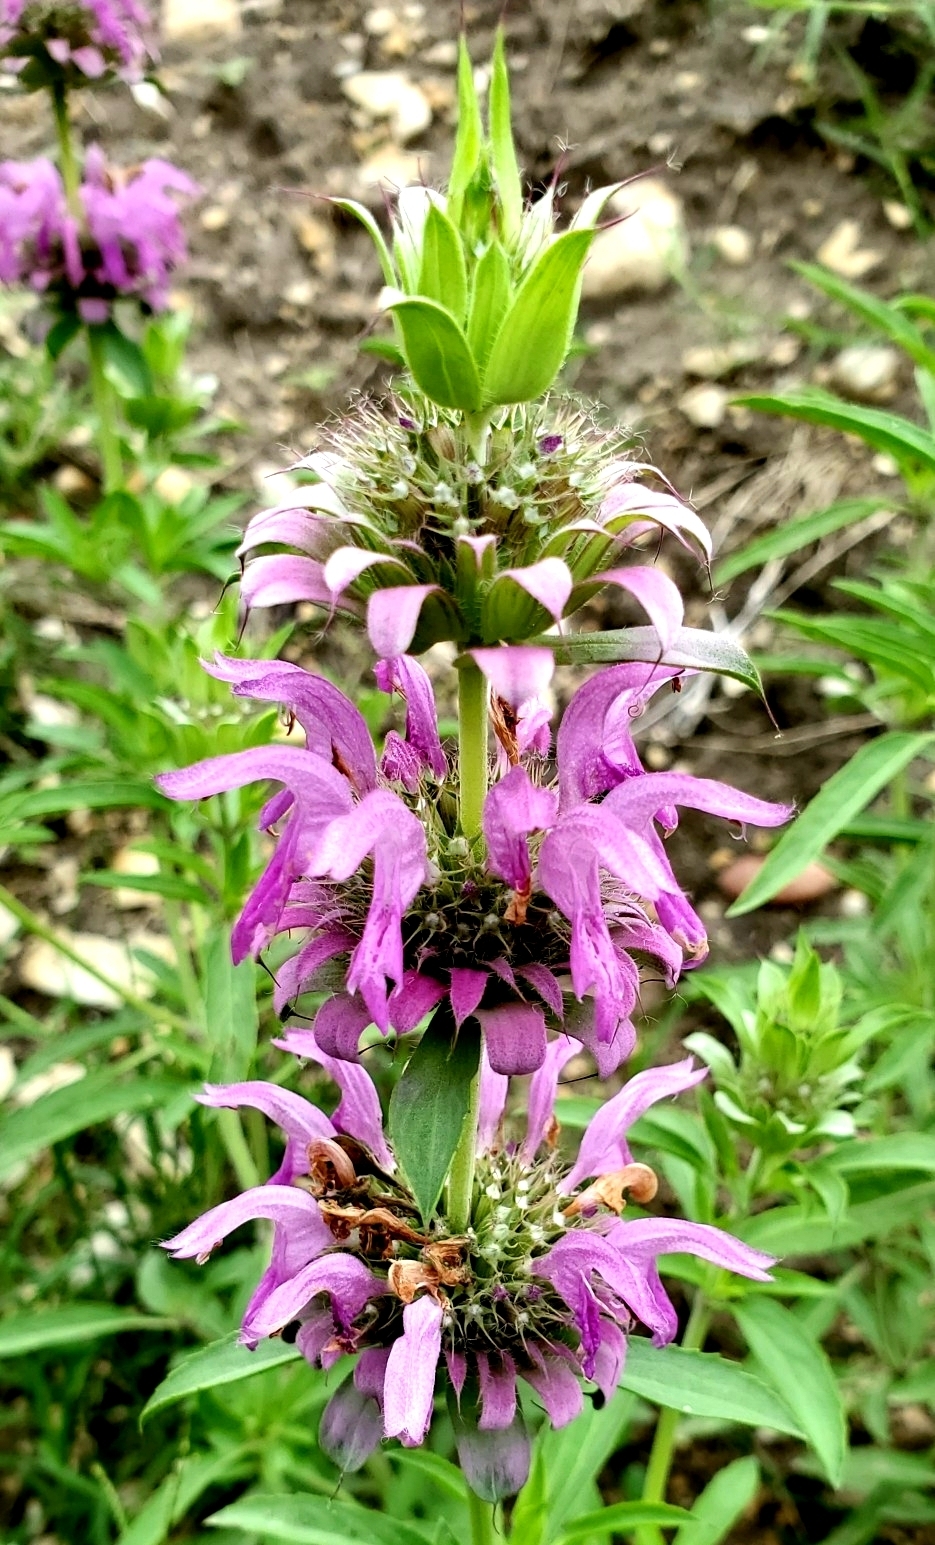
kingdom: Plantae
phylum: Tracheophyta
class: Magnoliopsida
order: Lamiales
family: Lamiaceae
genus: Monarda
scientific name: Monarda citriodora
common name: Lemon beebalm
